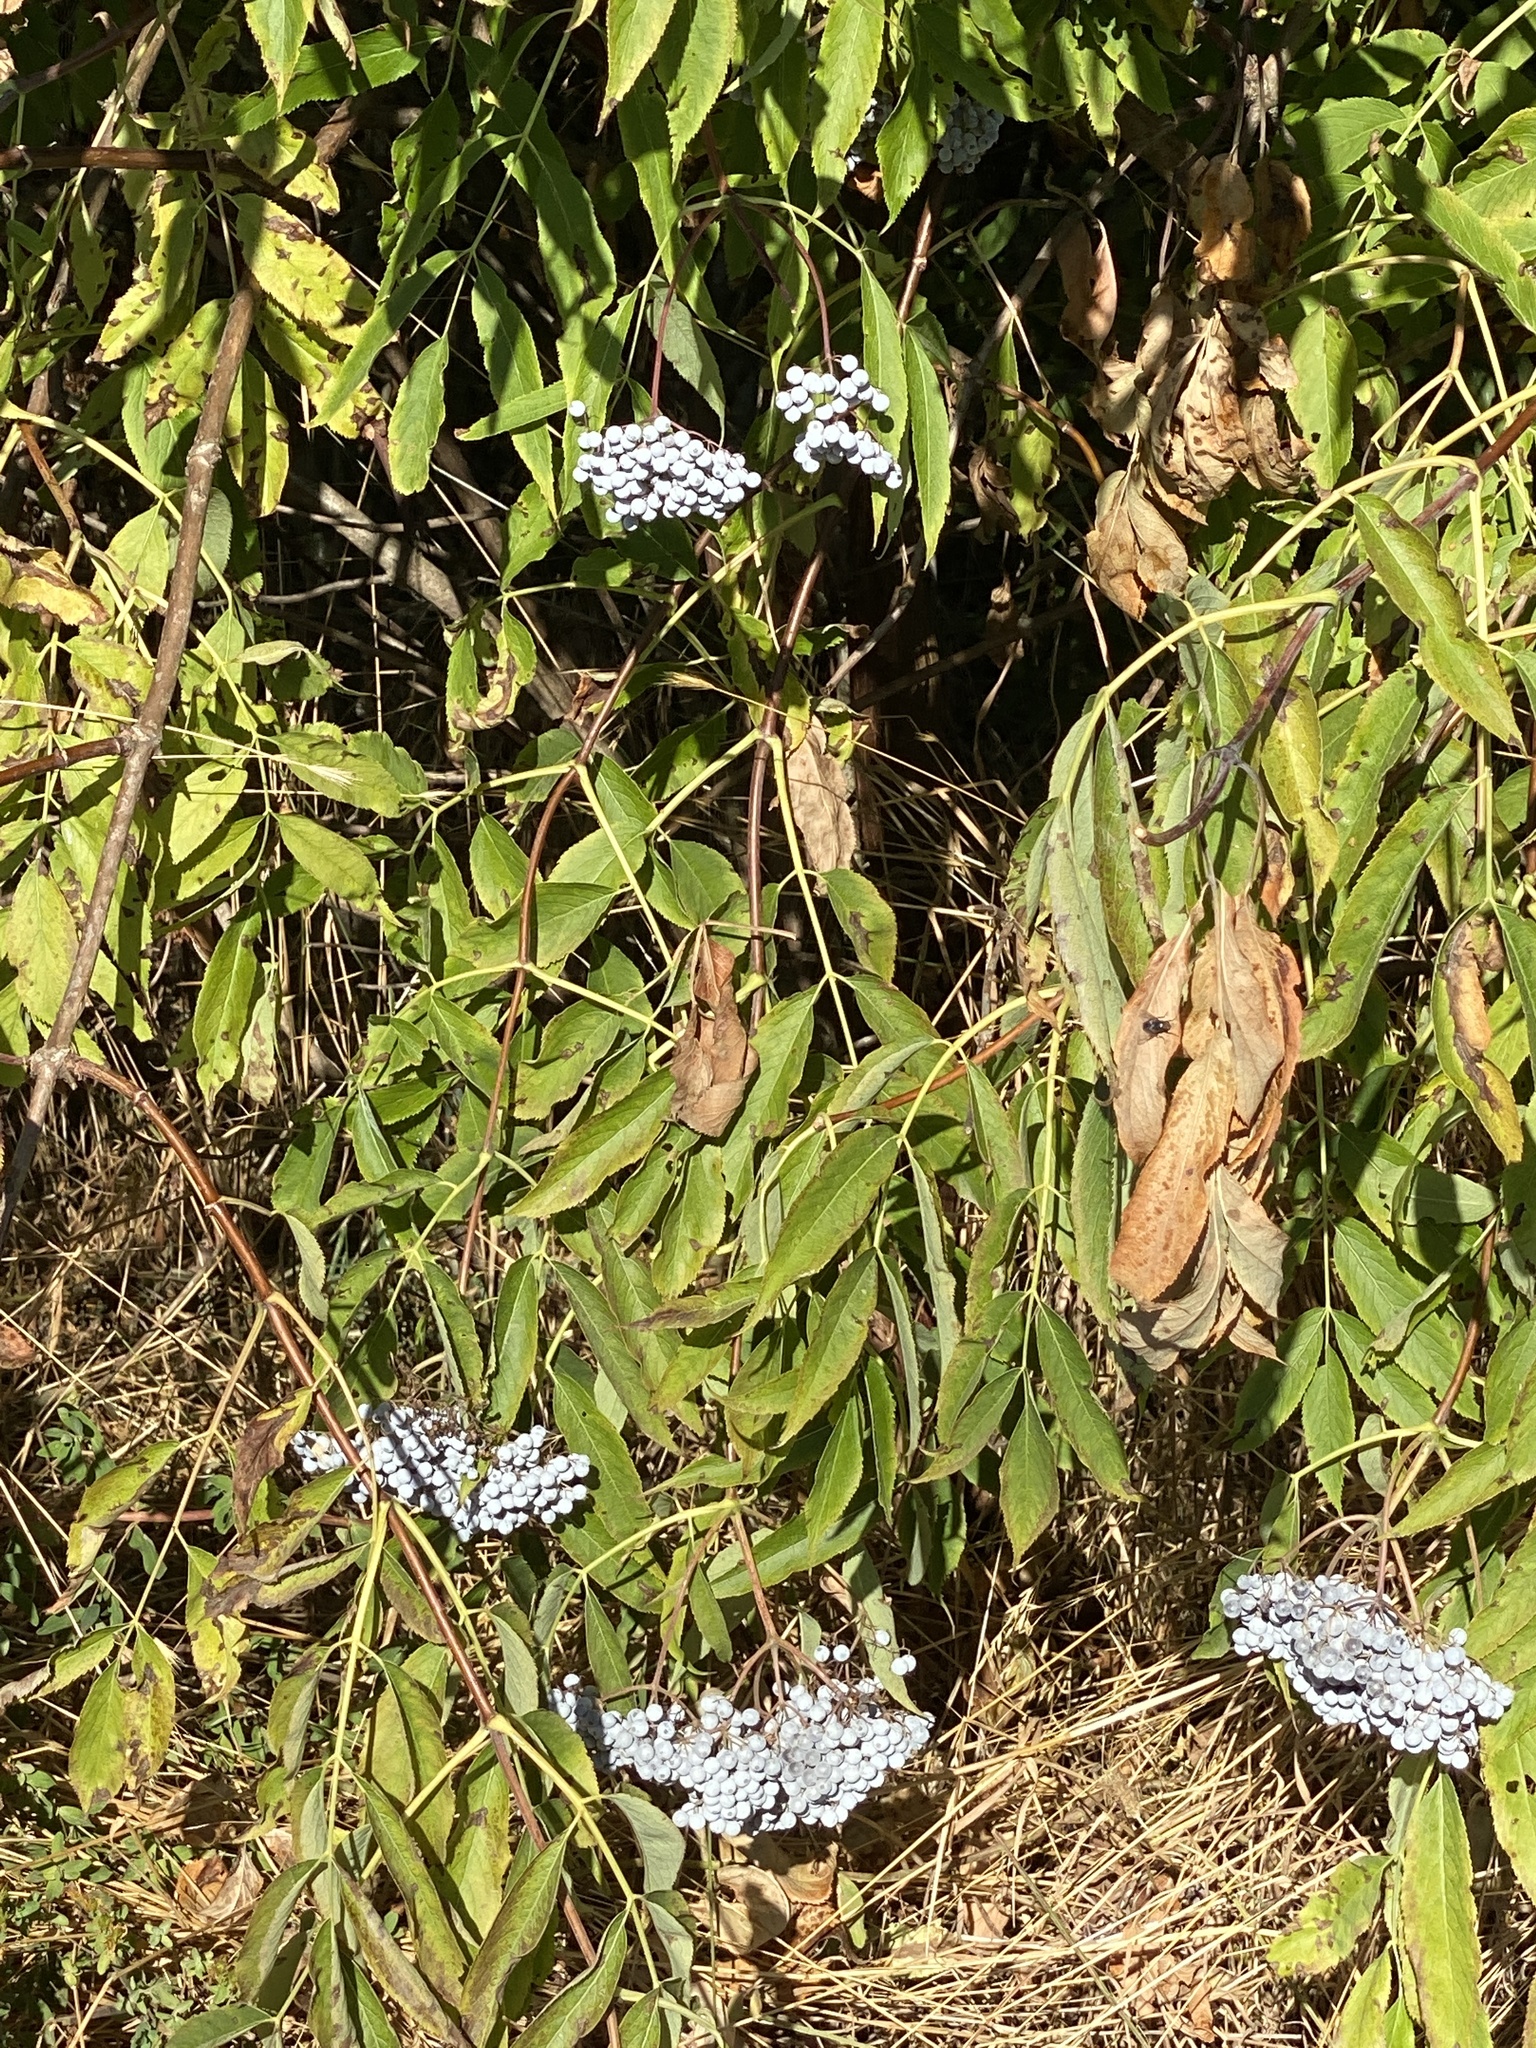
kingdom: Plantae
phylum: Tracheophyta
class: Magnoliopsida
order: Dipsacales
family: Viburnaceae
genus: Sambucus
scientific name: Sambucus cerulea
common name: Blue elder
